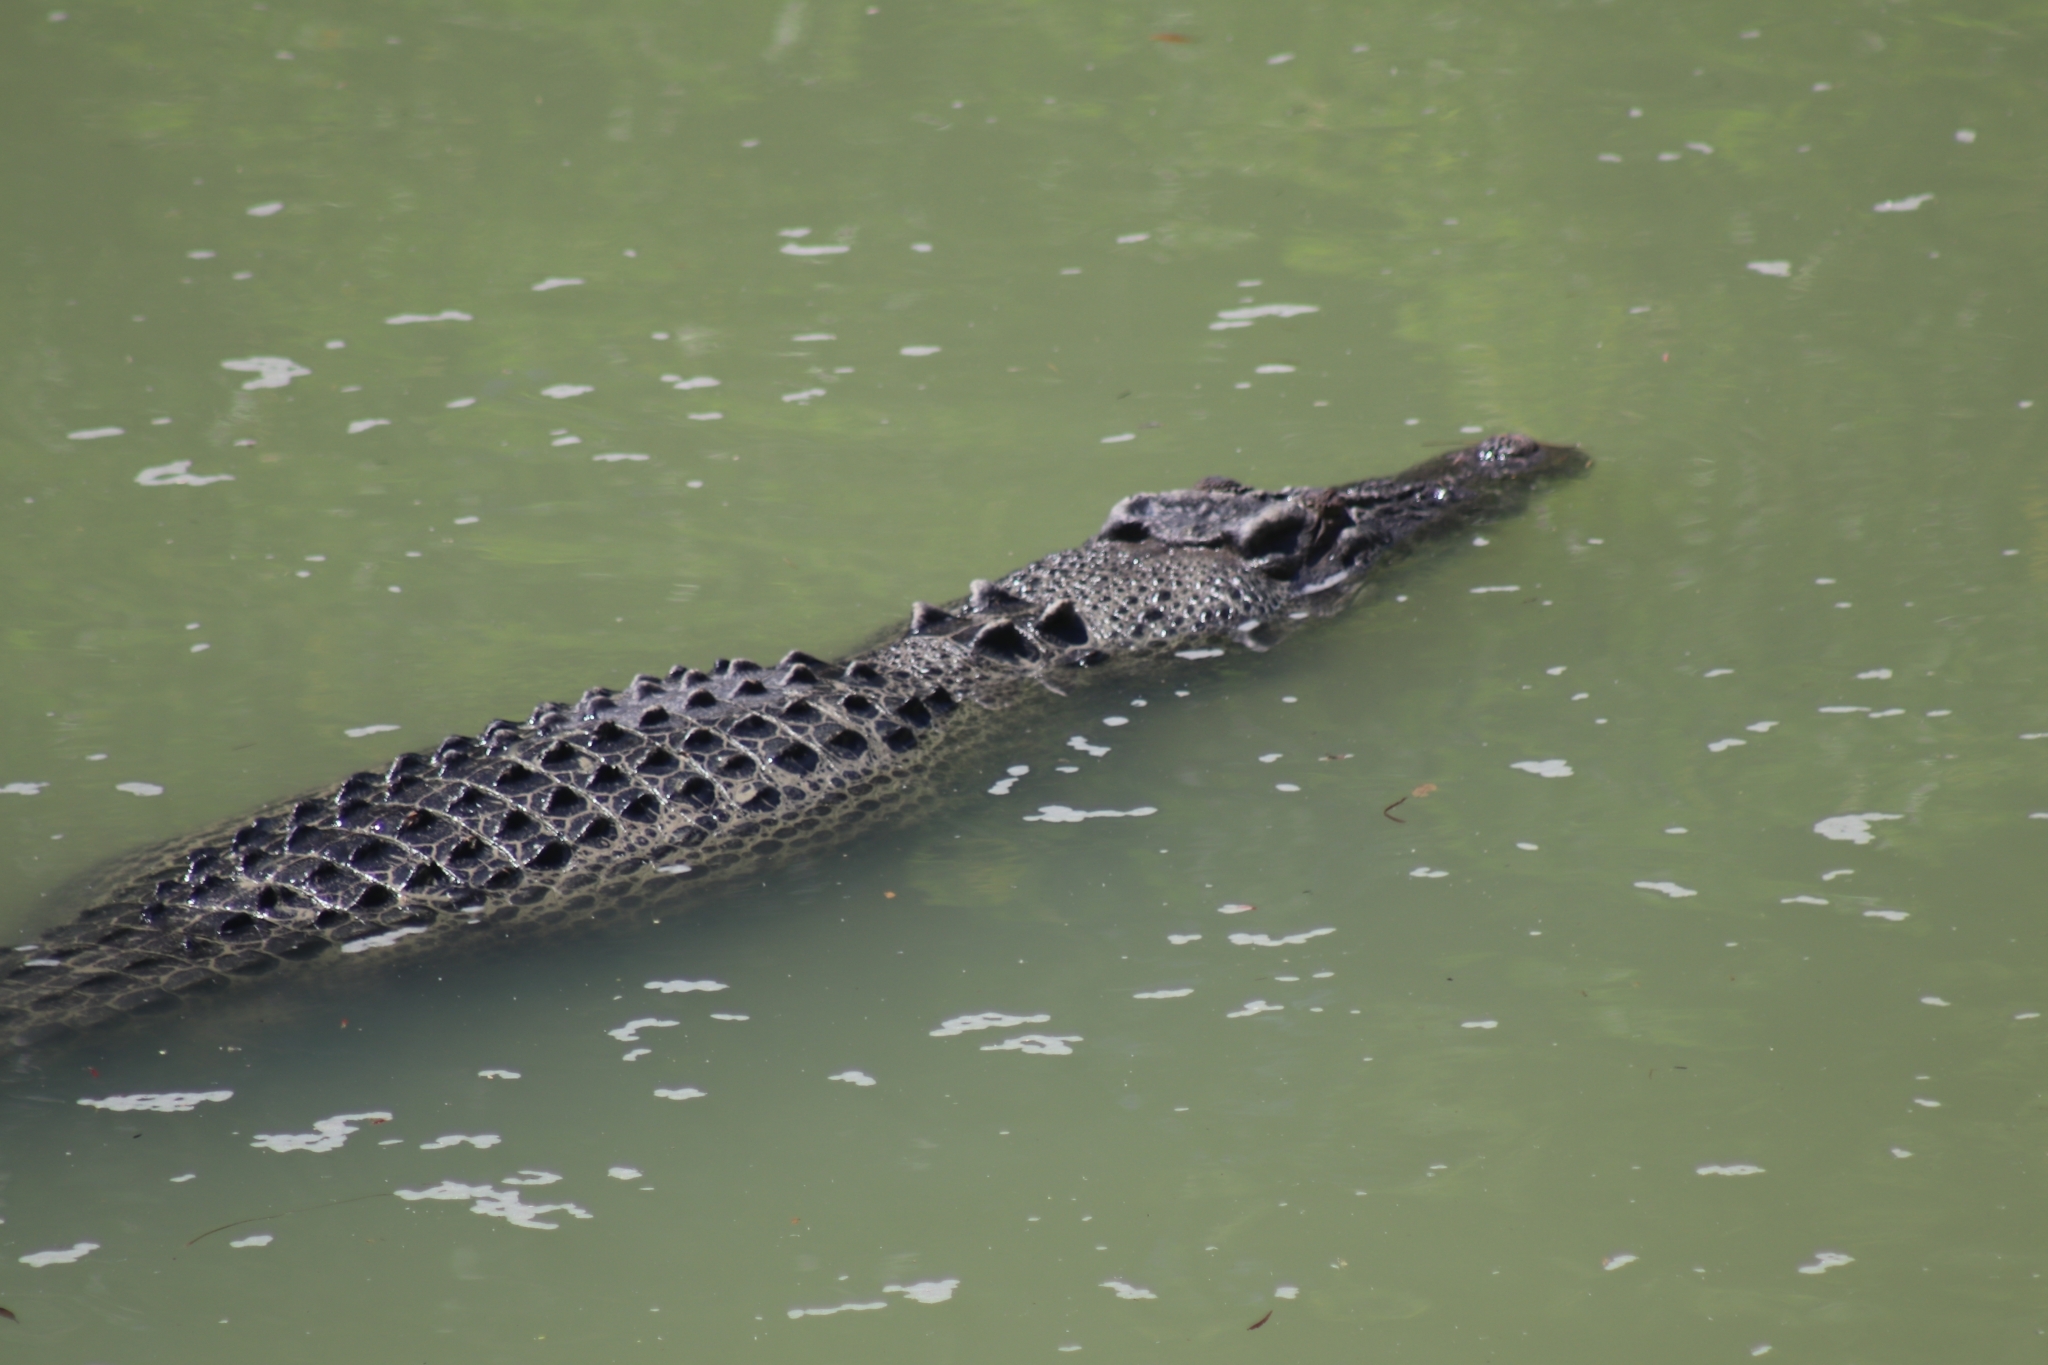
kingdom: Animalia
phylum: Chordata
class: Crocodylia
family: Crocodylidae
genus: Crocodylus
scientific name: Crocodylus porosus
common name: Saltwater crocodile
